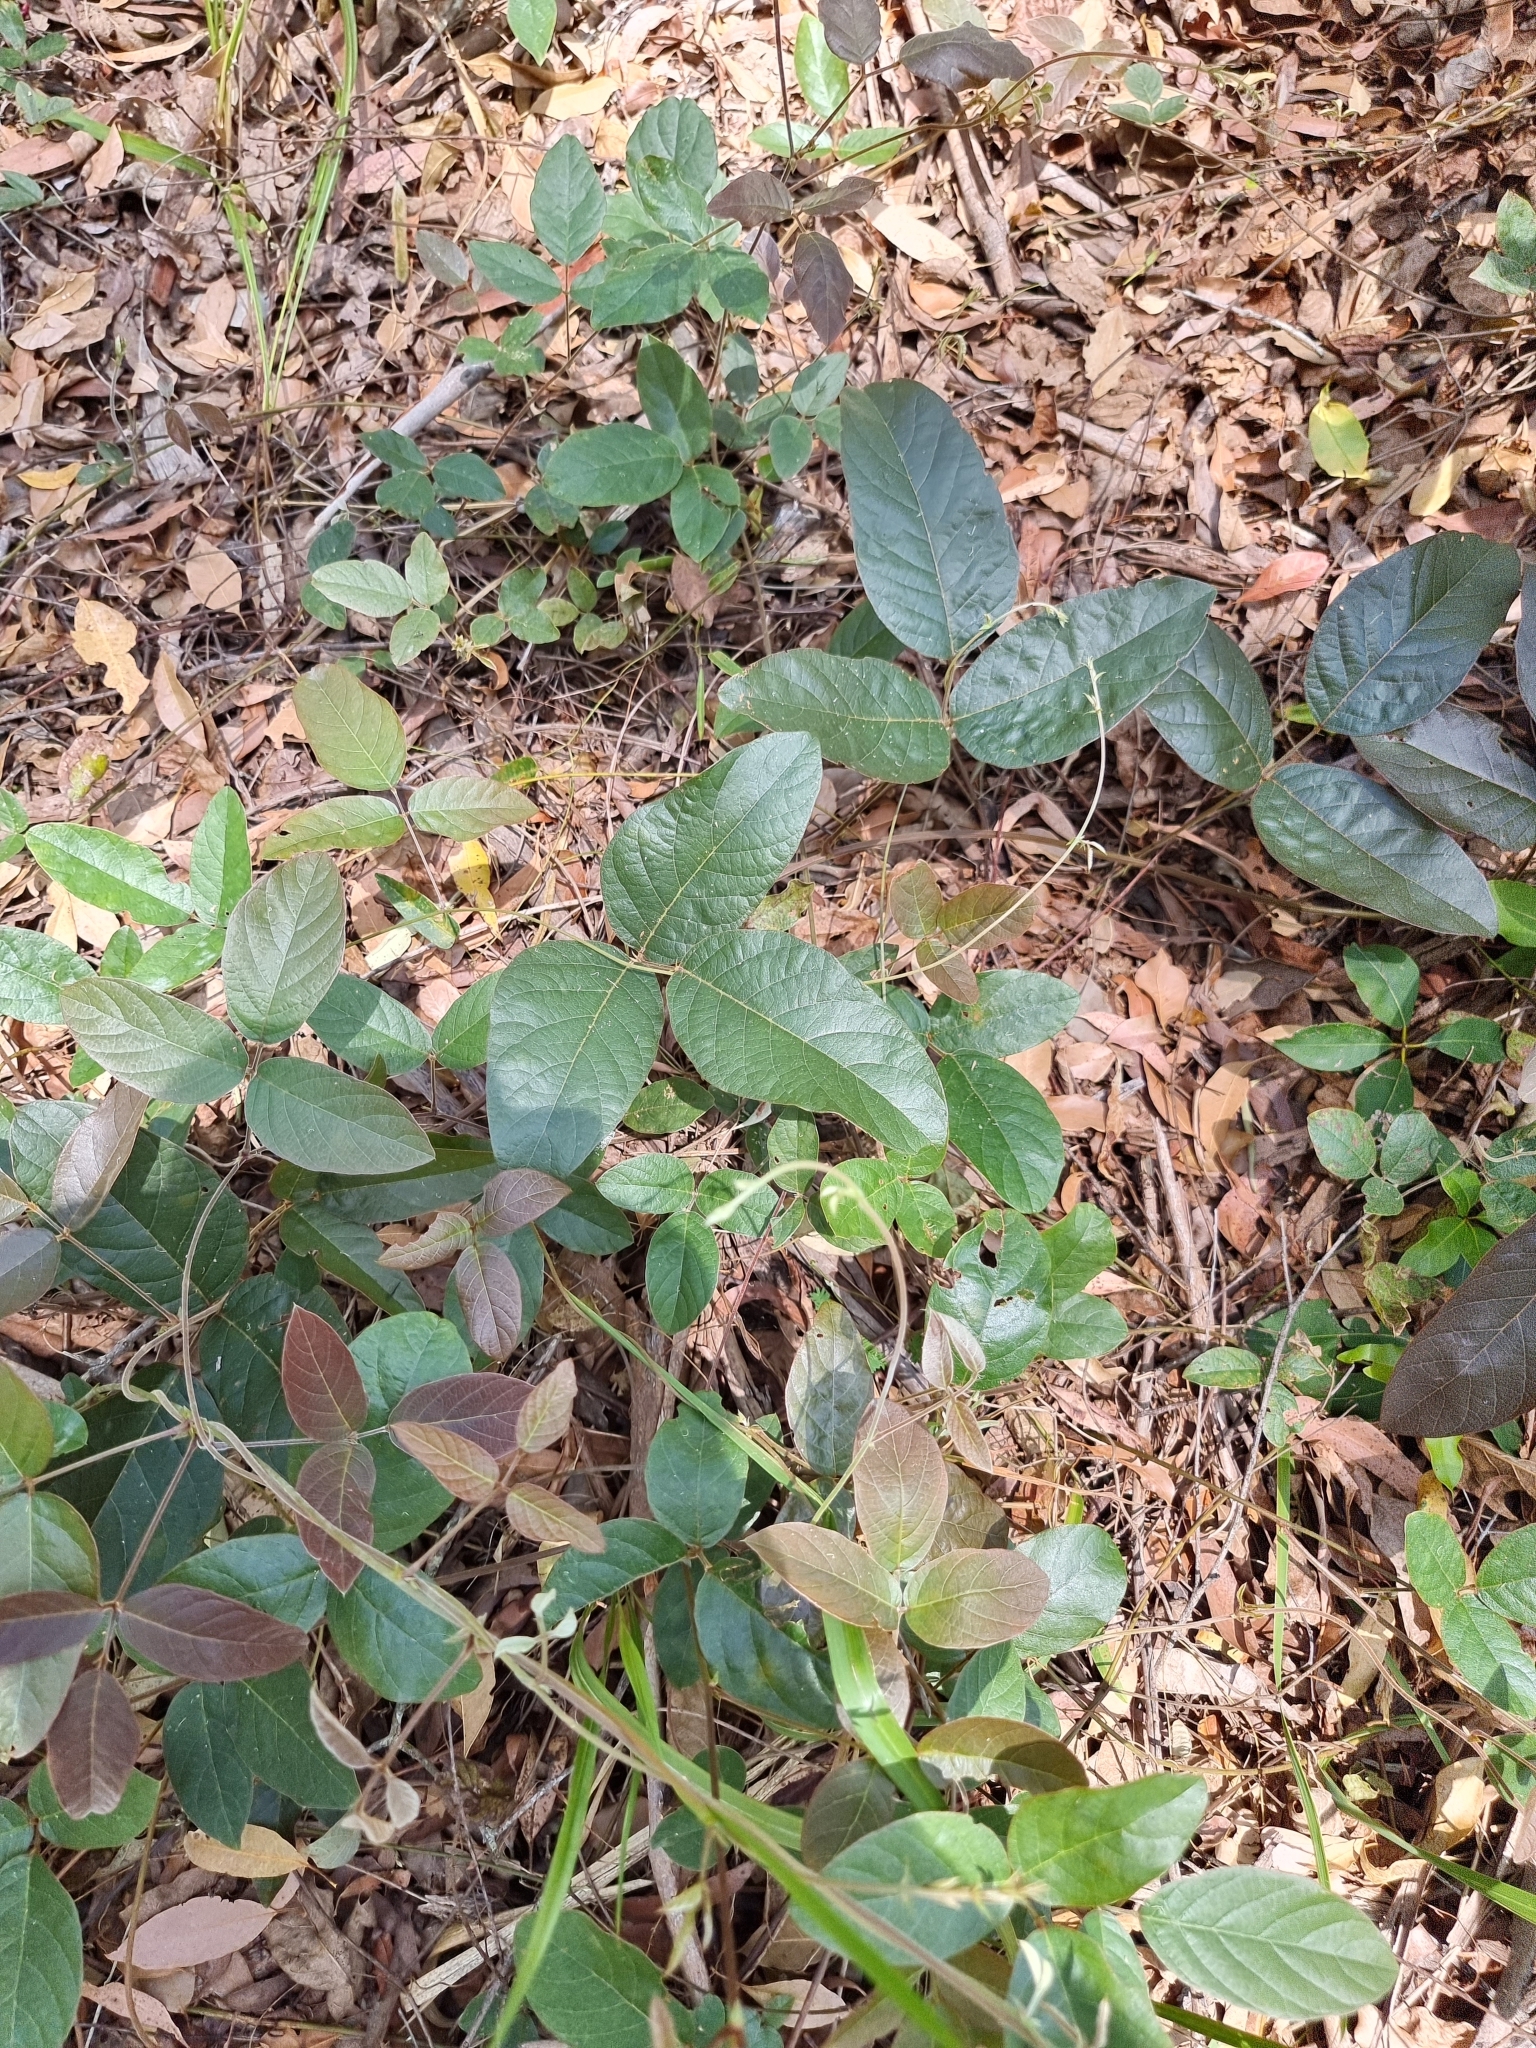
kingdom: Plantae
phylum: Tracheophyta
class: Magnoliopsida
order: Fabales
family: Fabaceae
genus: Kennedia
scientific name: Kennedia rubicunda
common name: Red kennedy-pea
